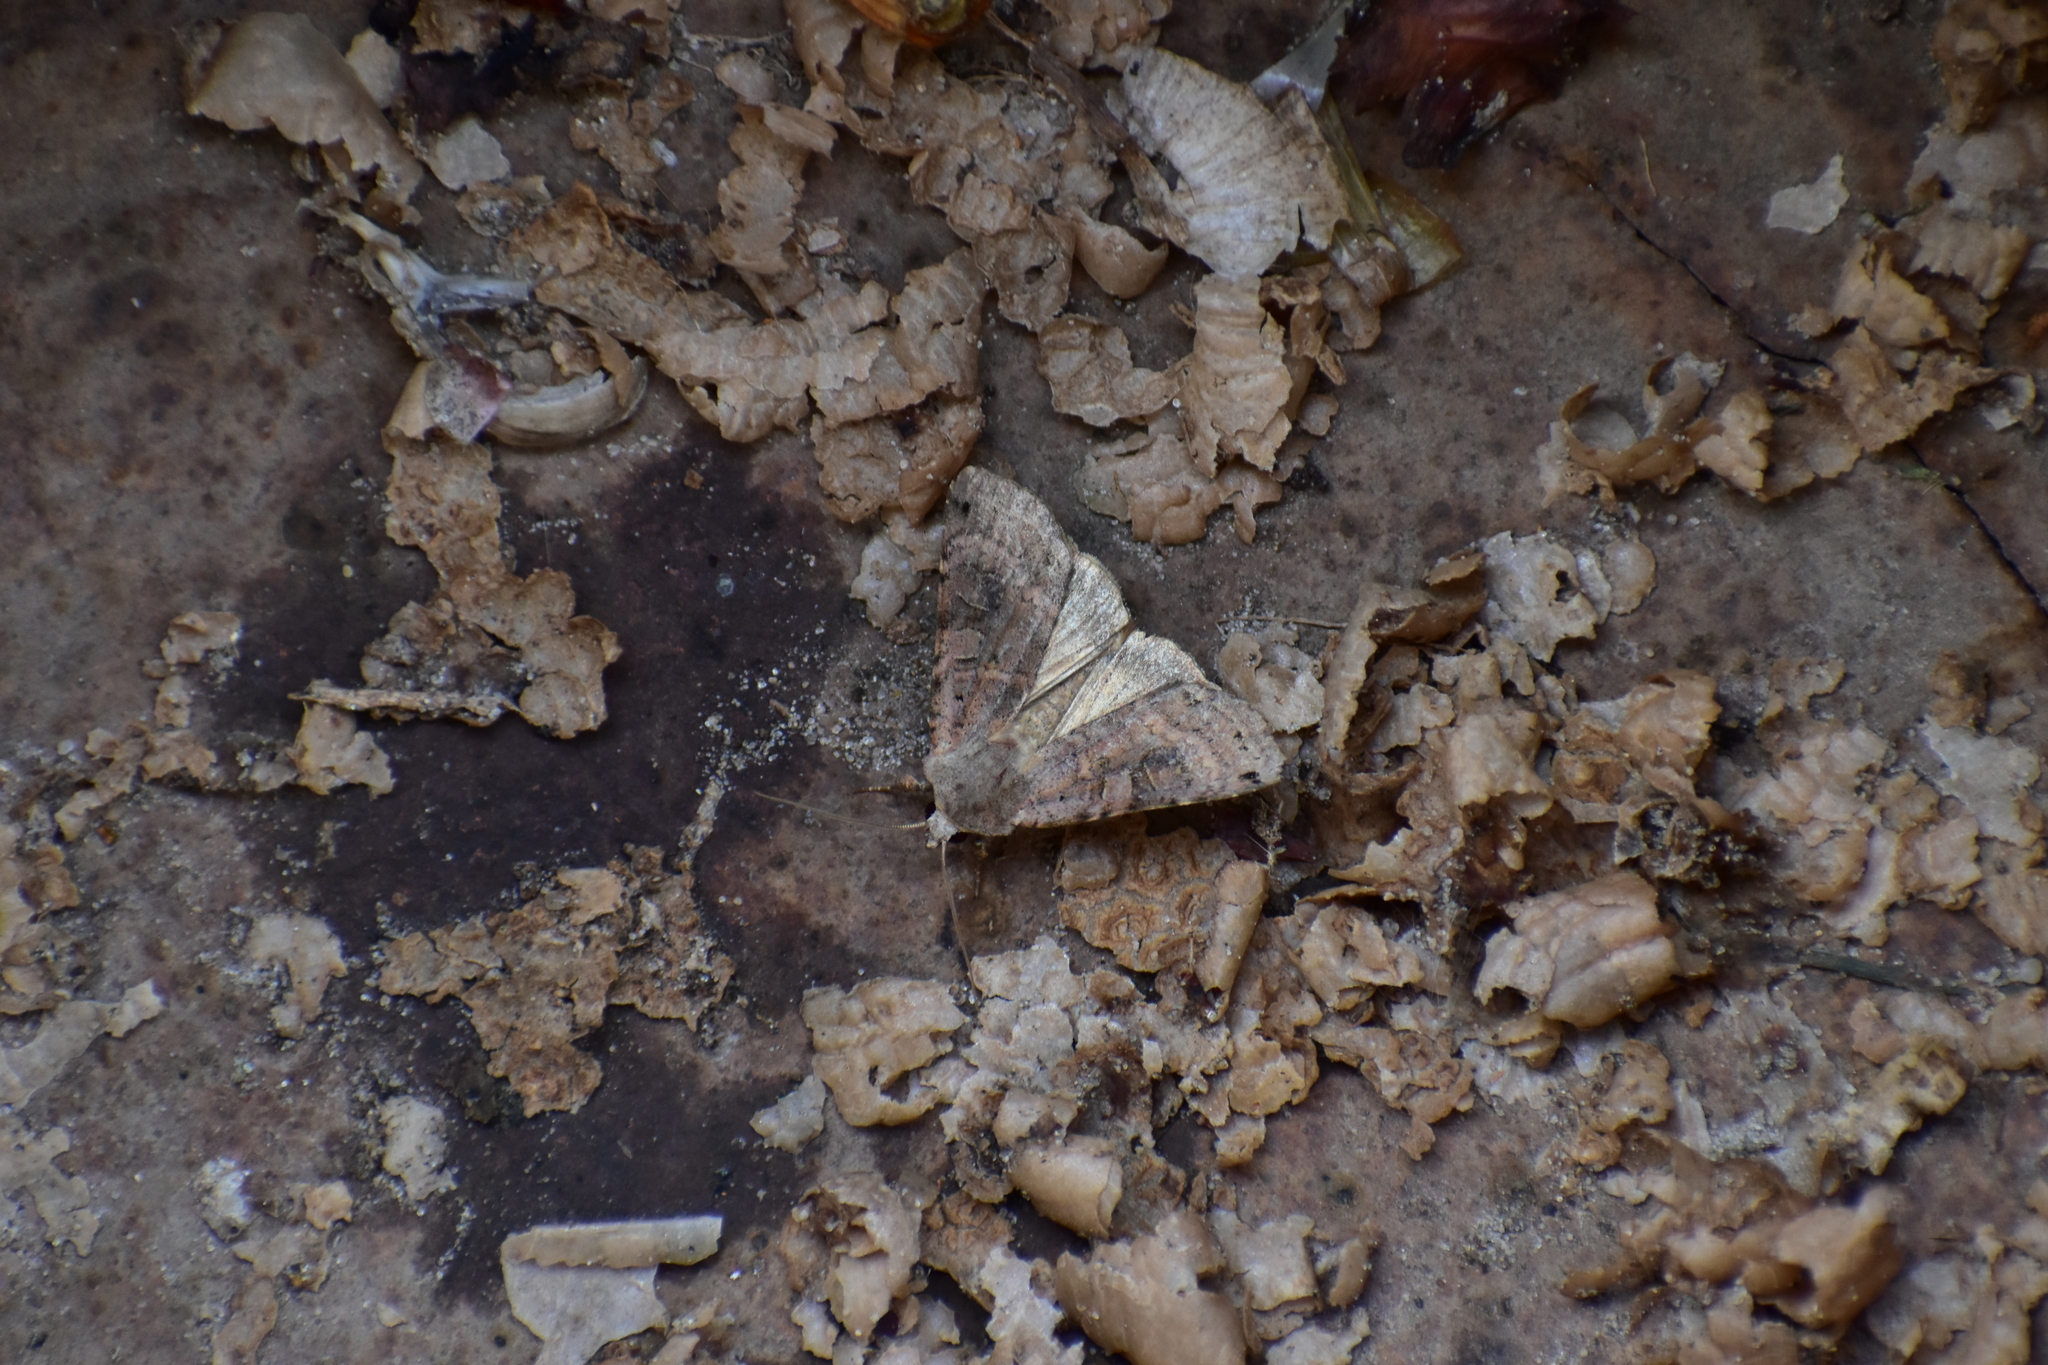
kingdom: Animalia
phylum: Arthropoda
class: Insecta
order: Lepidoptera
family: Noctuidae
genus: Xestia
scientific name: Xestia baja
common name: Dotted clay
